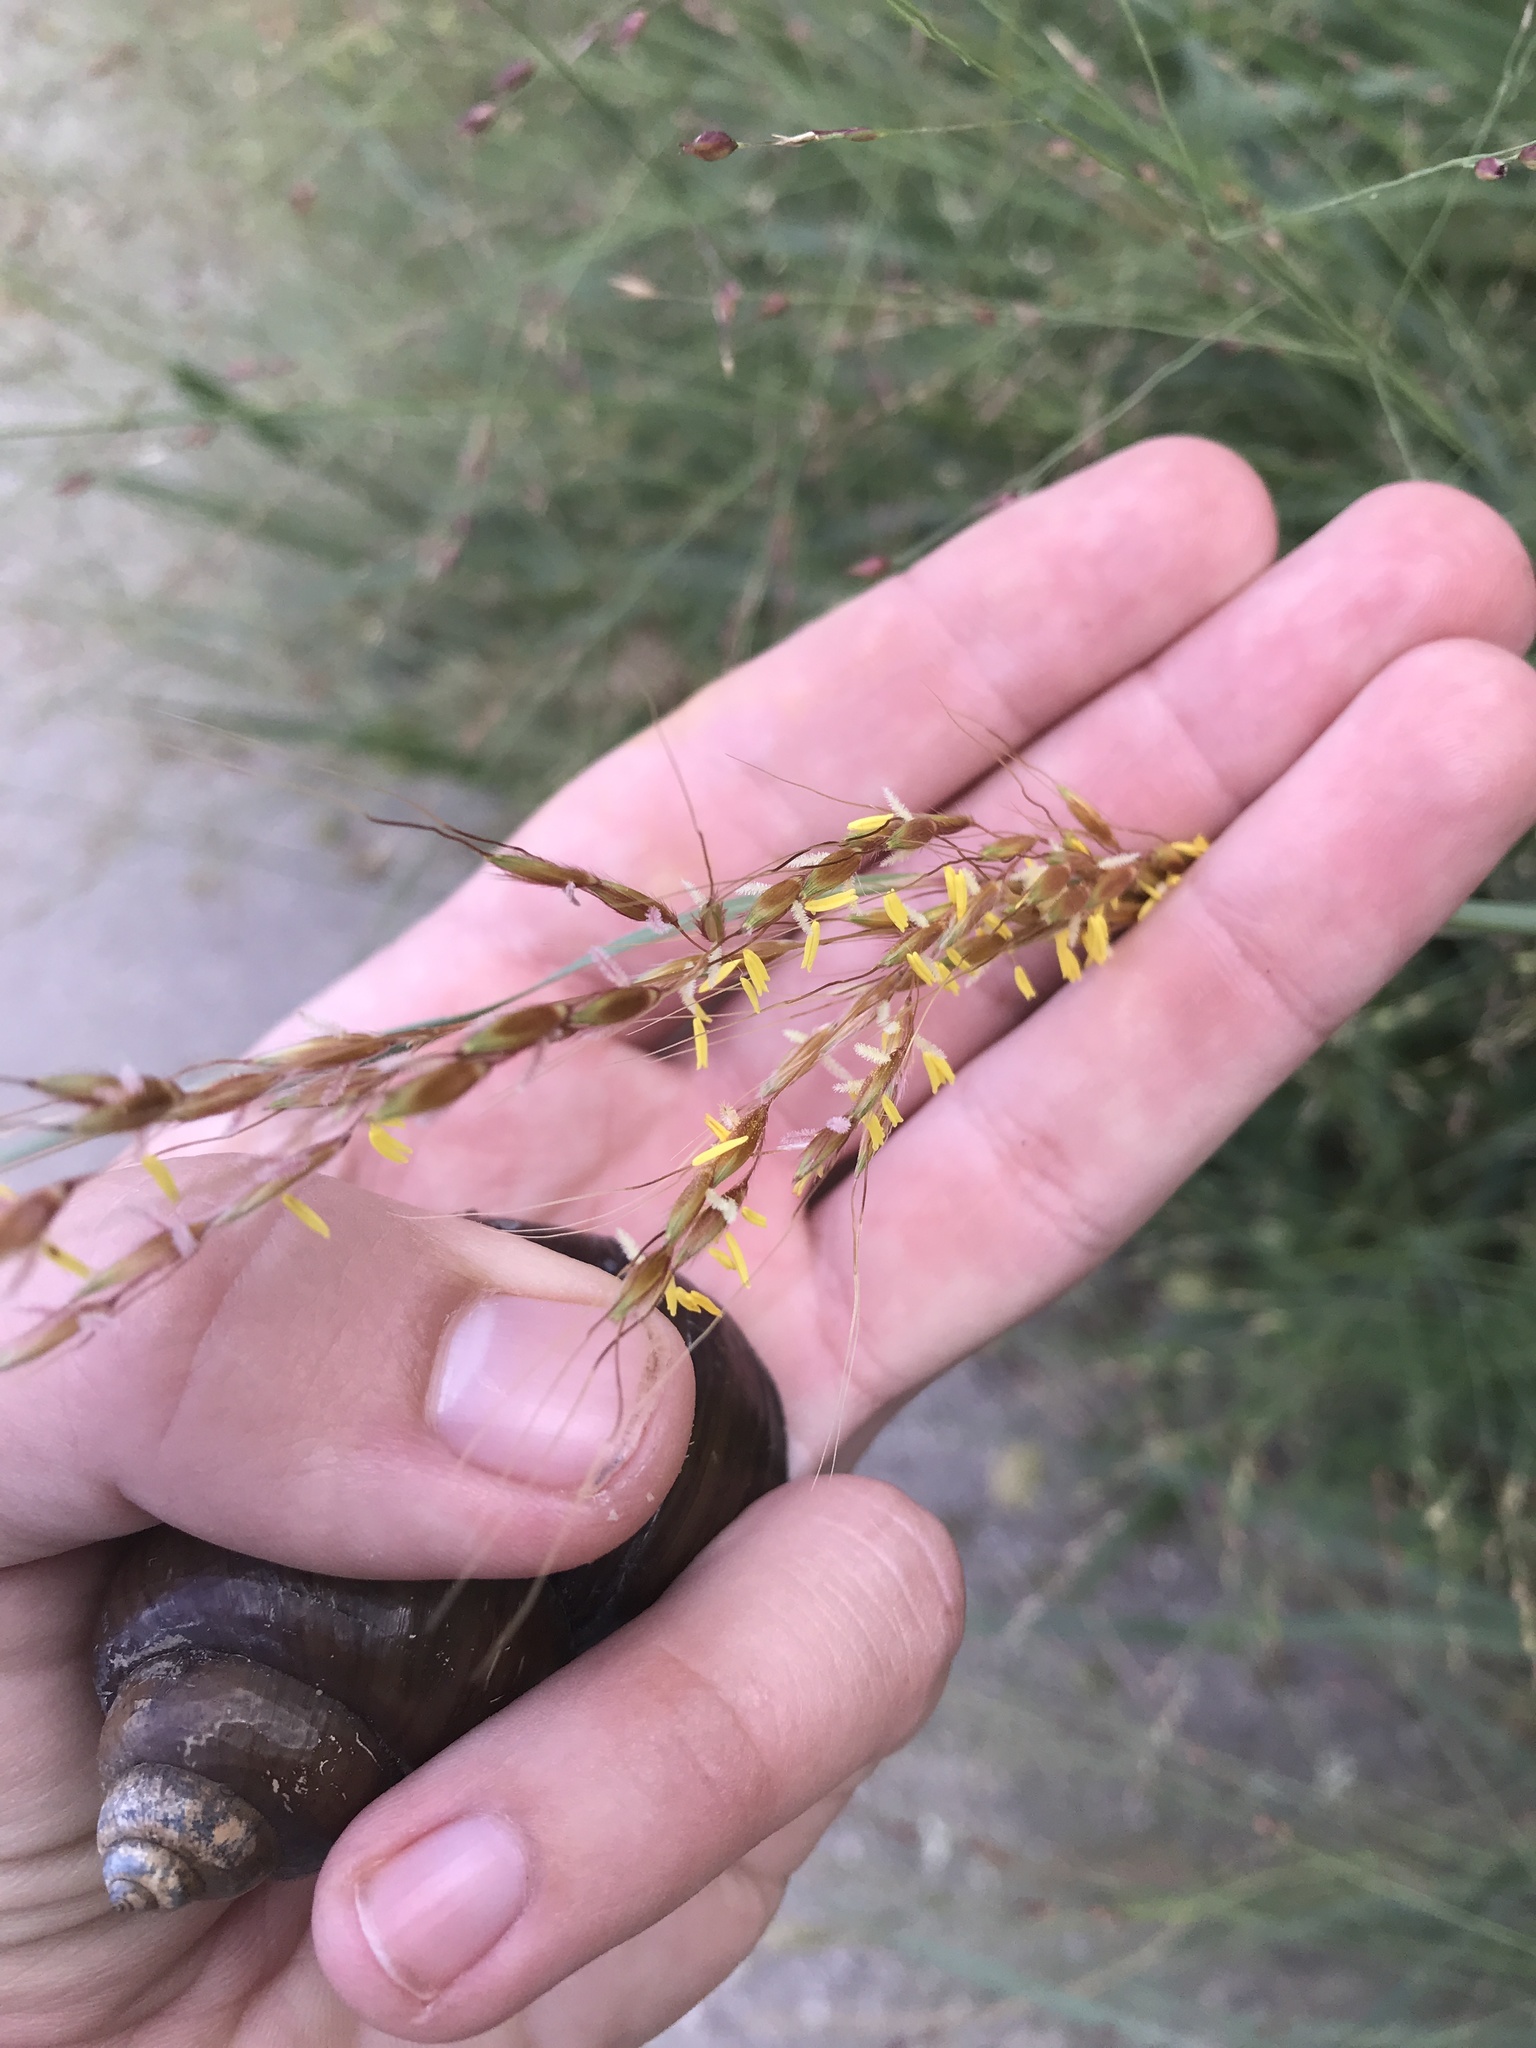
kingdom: Plantae
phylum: Tracheophyta
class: Liliopsida
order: Poales
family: Poaceae
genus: Sorghastrum
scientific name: Sorghastrum nutans
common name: Indian grass
